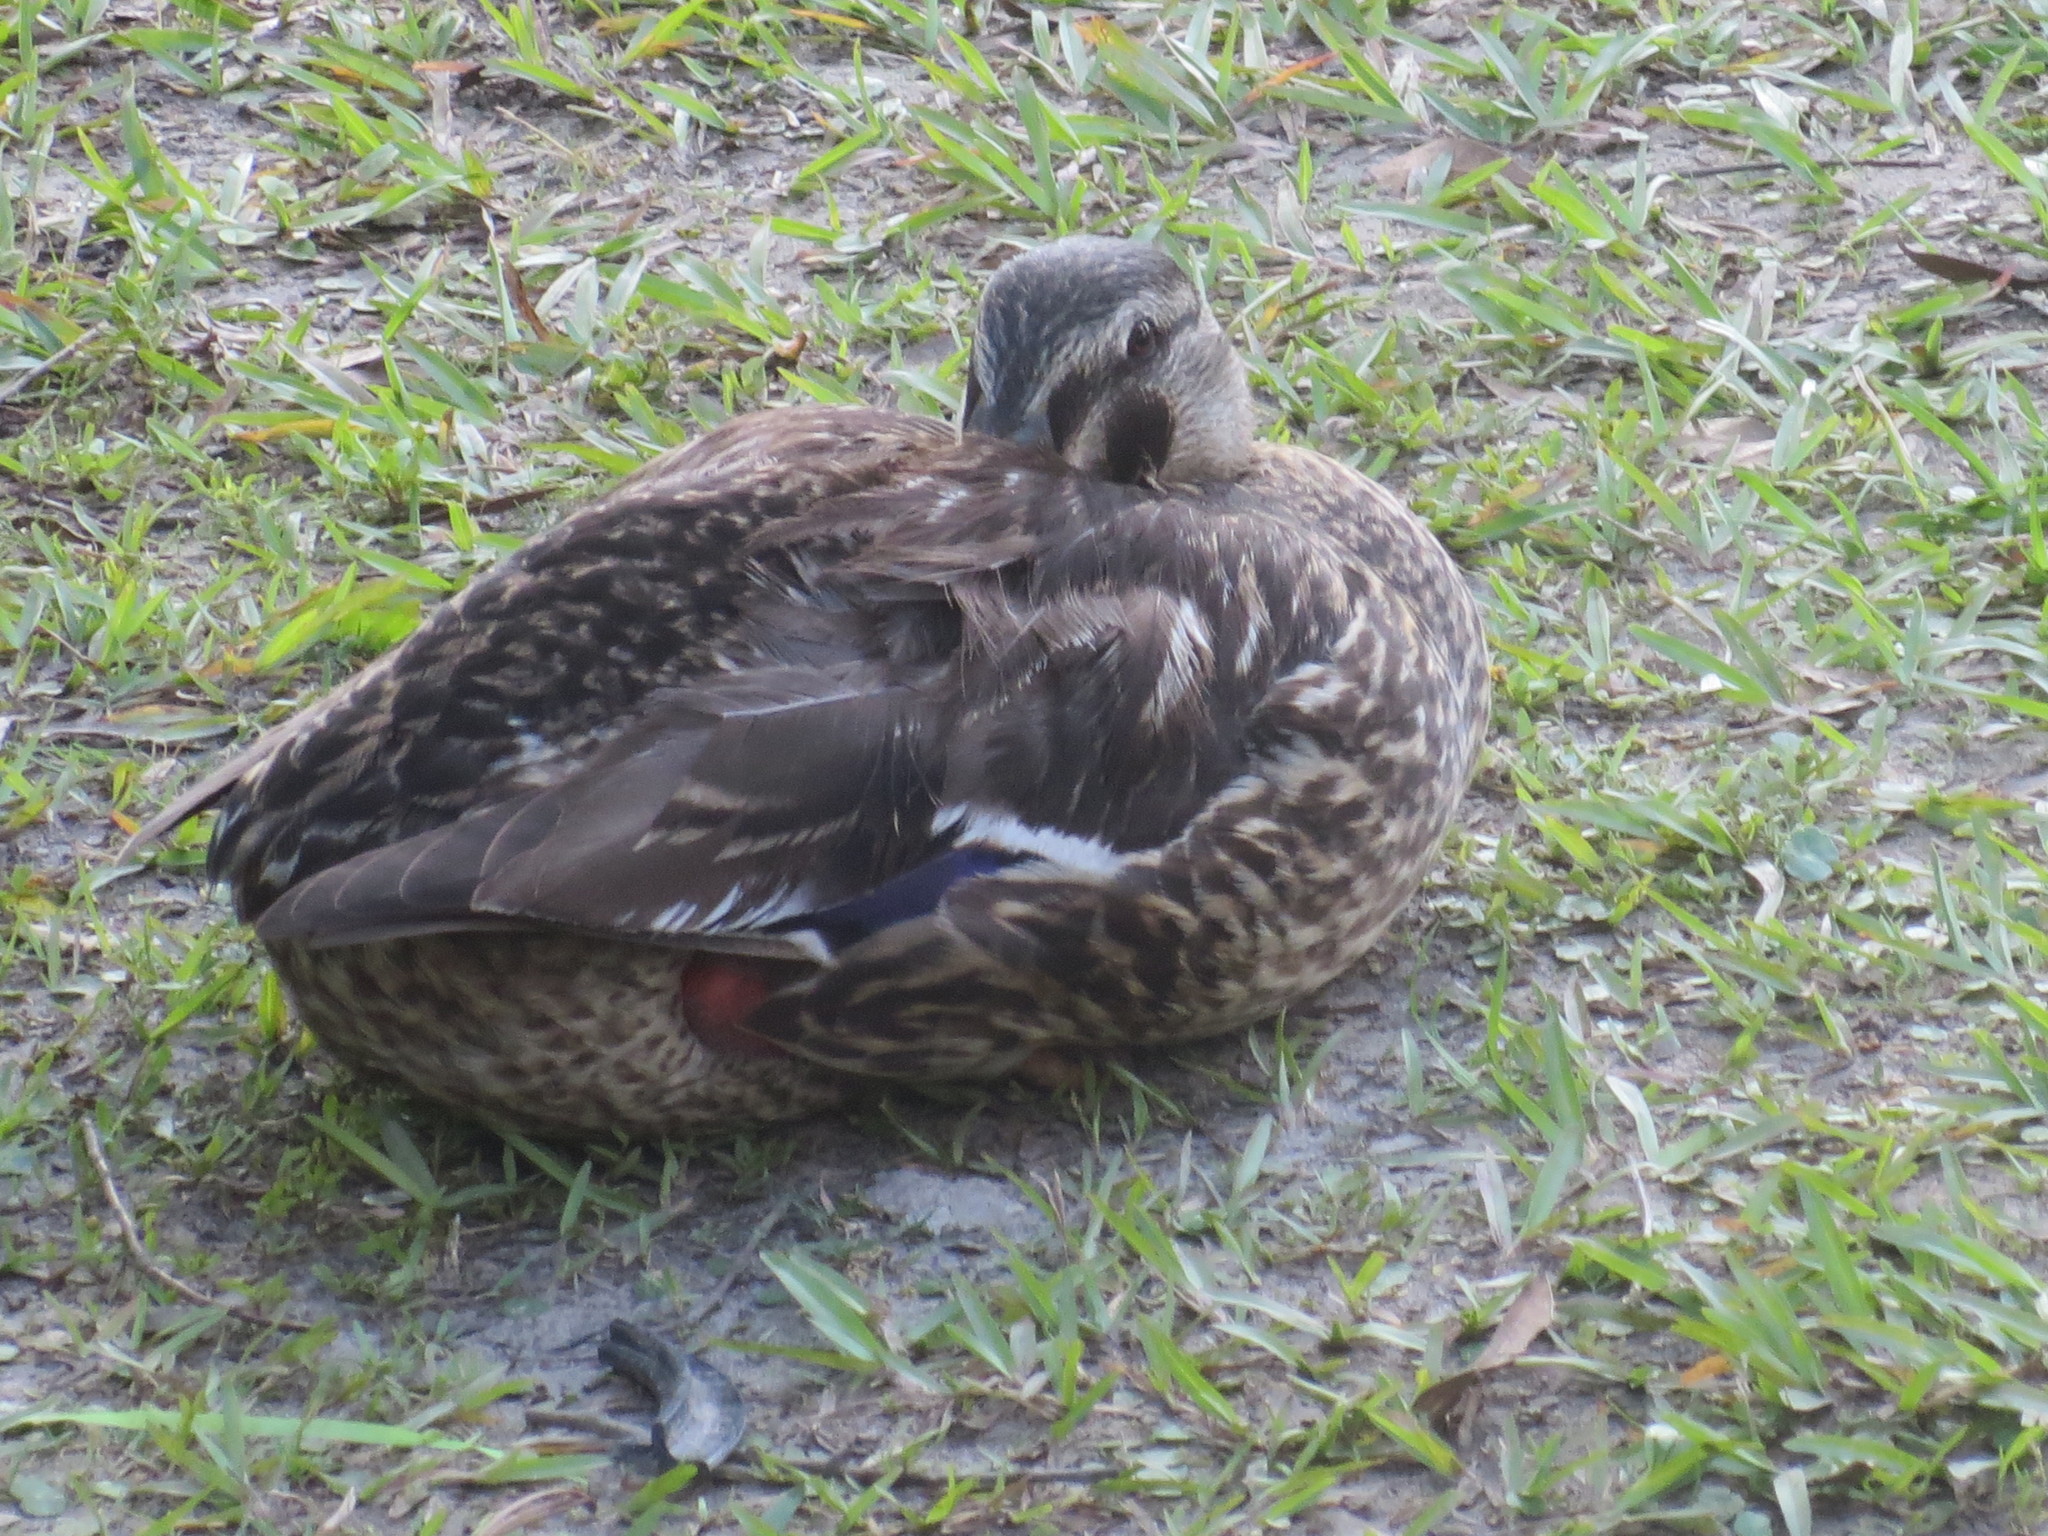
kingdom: Animalia
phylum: Chordata
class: Aves
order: Anseriformes
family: Anatidae
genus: Anas
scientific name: Anas platyrhynchos
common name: Mallard
